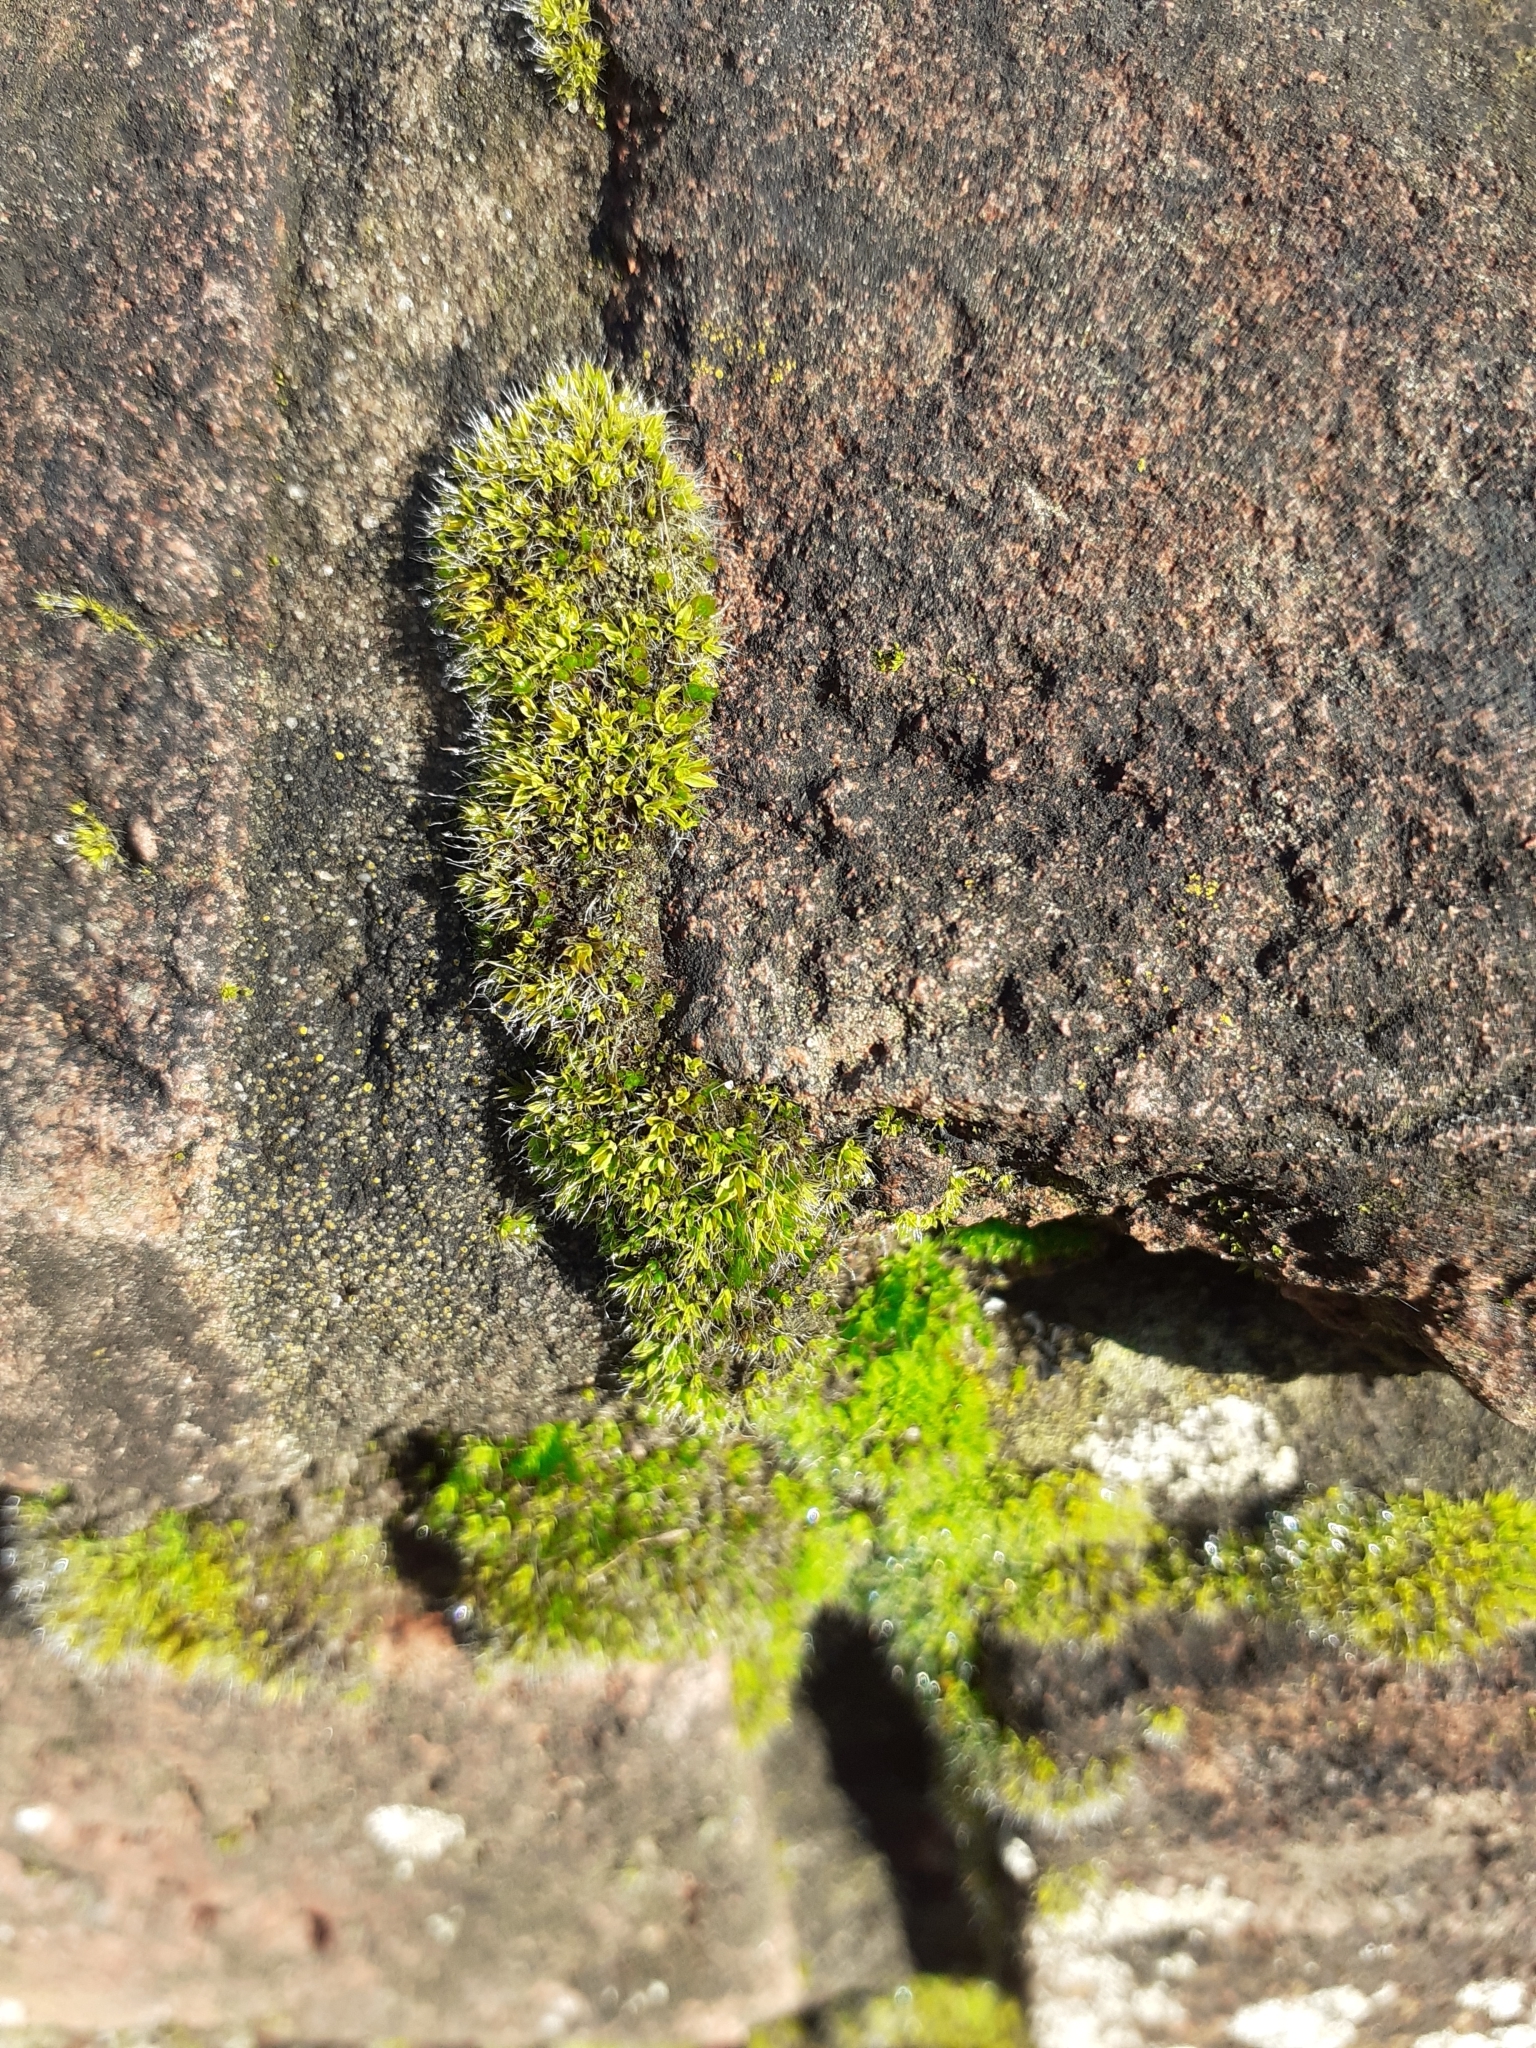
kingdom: Plantae
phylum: Bryophyta
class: Bryopsida
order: Pottiales
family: Pottiaceae
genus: Tortula
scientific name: Tortula muralis
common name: Wall screw-moss
